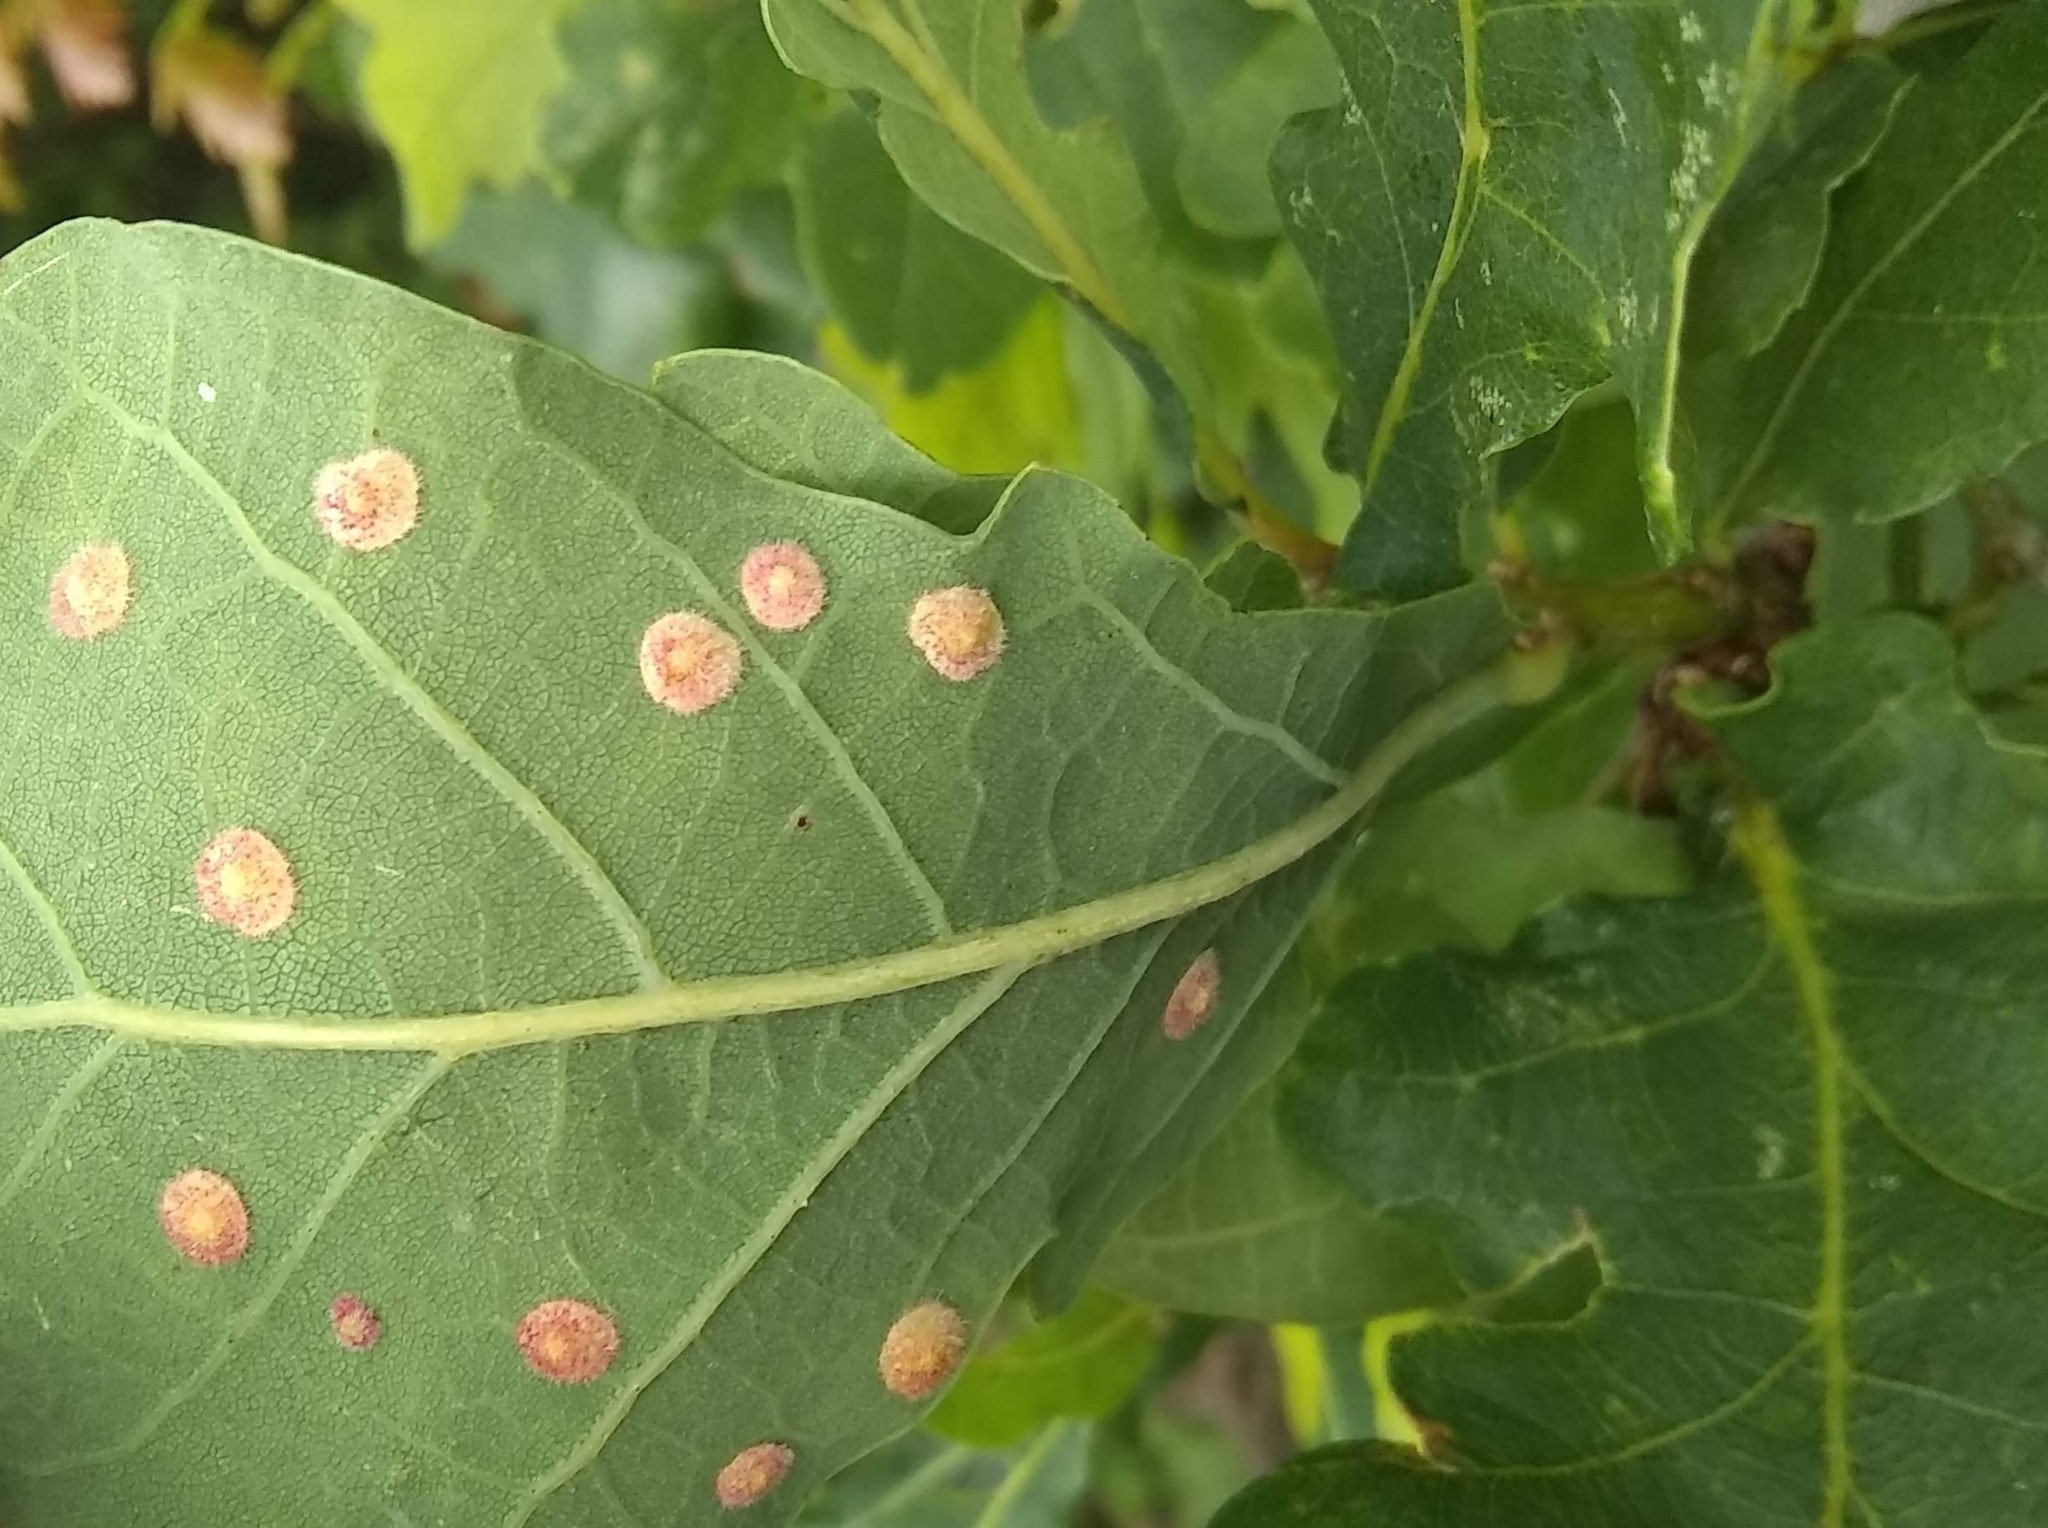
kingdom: Animalia
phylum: Arthropoda
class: Insecta
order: Hymenoptera
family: Cynipidae
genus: Neuroterus
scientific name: Neuroterus quercusbaccarum
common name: Common spangle gall
